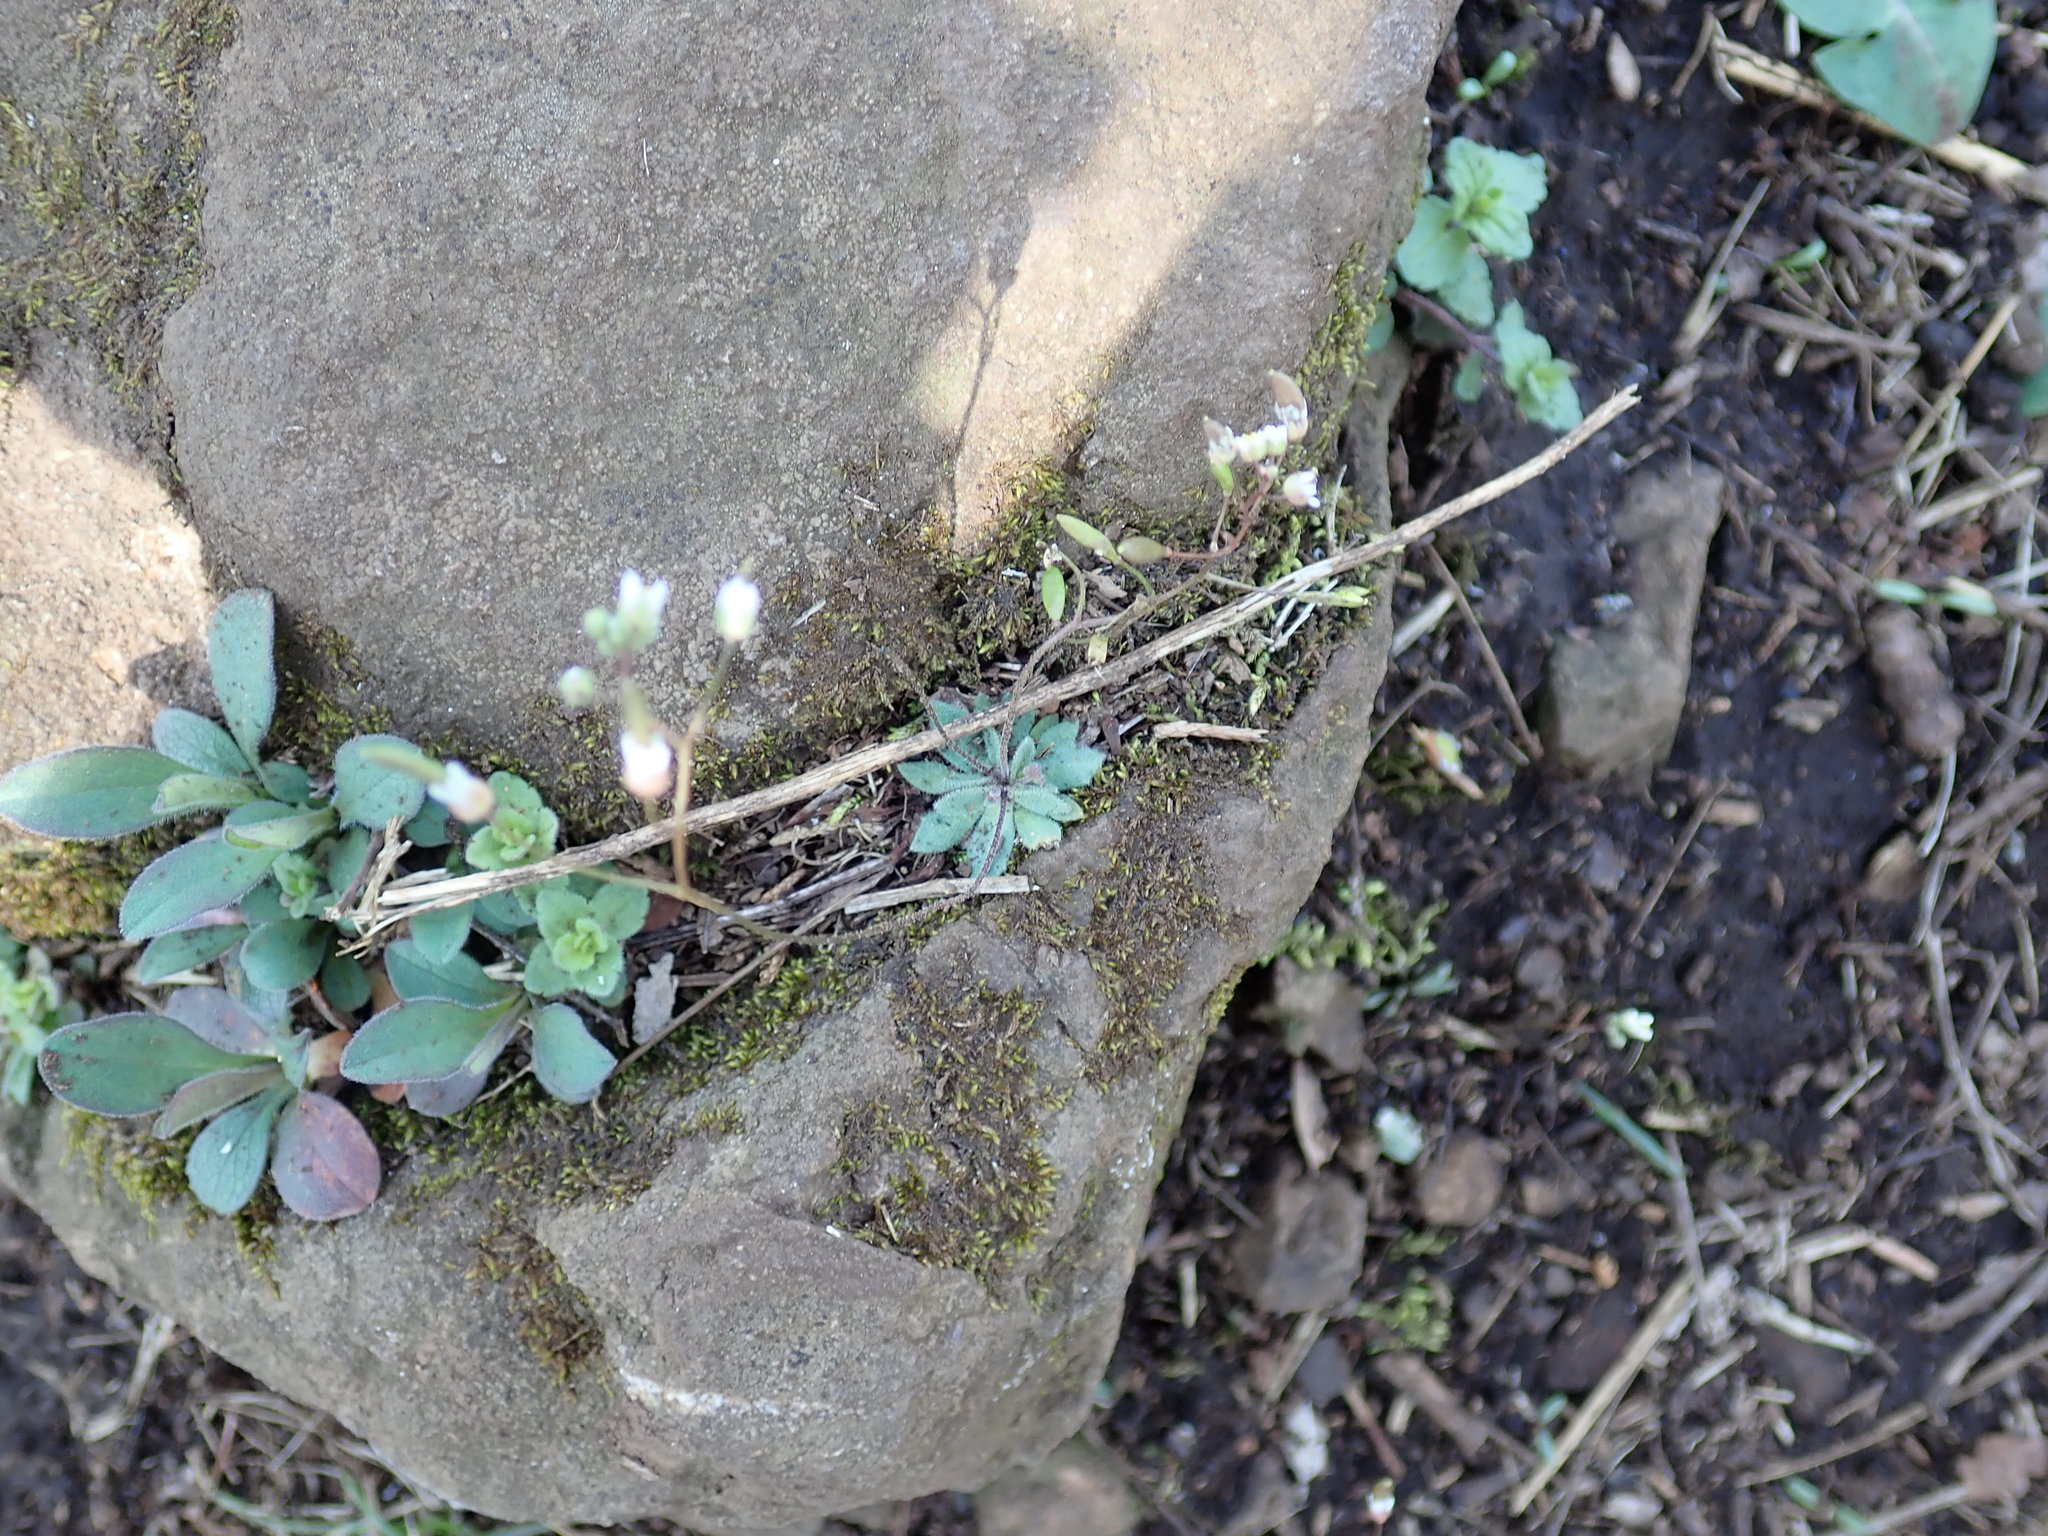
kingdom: Plantae
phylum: Tracheophyta
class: Magnoliopsida
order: Brassicales
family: Brassicaceae
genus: Draba
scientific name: Draba verna
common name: Spring draba
